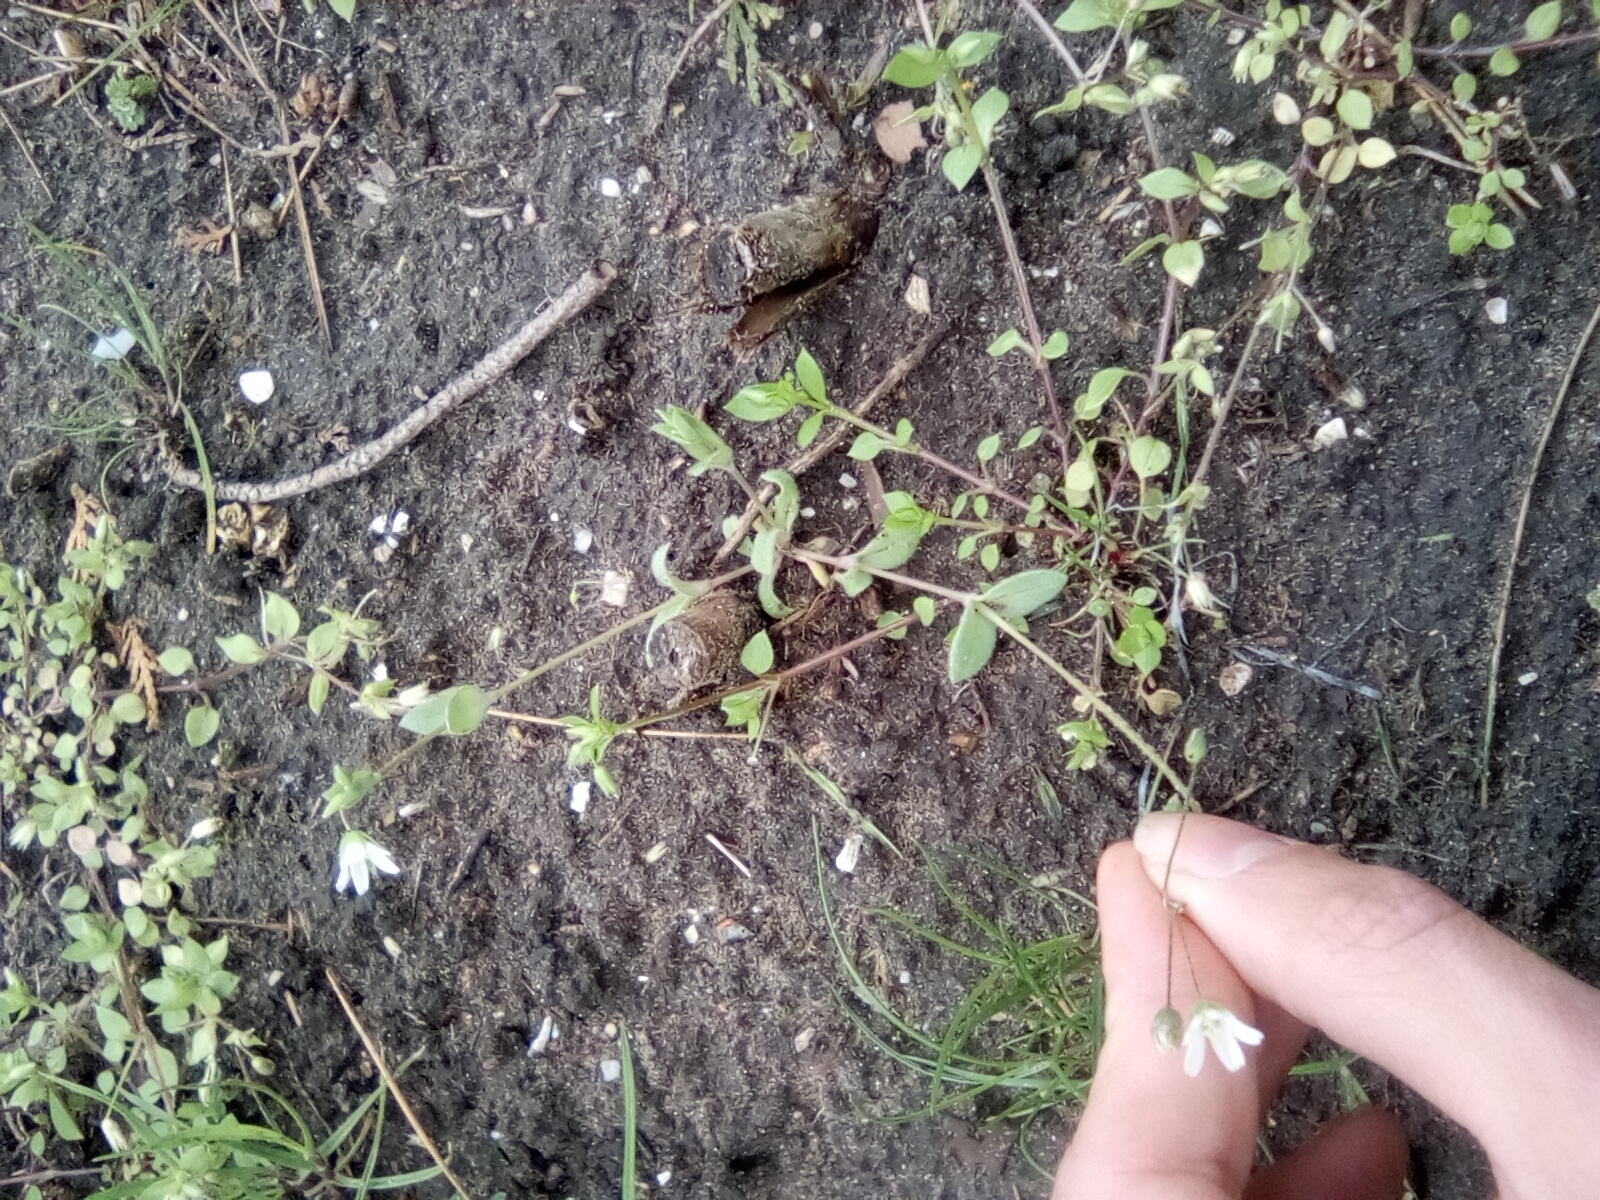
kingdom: Plantae
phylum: Tracheophyta
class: Magnoliopsida
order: Caryophyllales
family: Caryophyllaceae
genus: Holosteum
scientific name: Holosteum umbellatum
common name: Jagged chickweed
